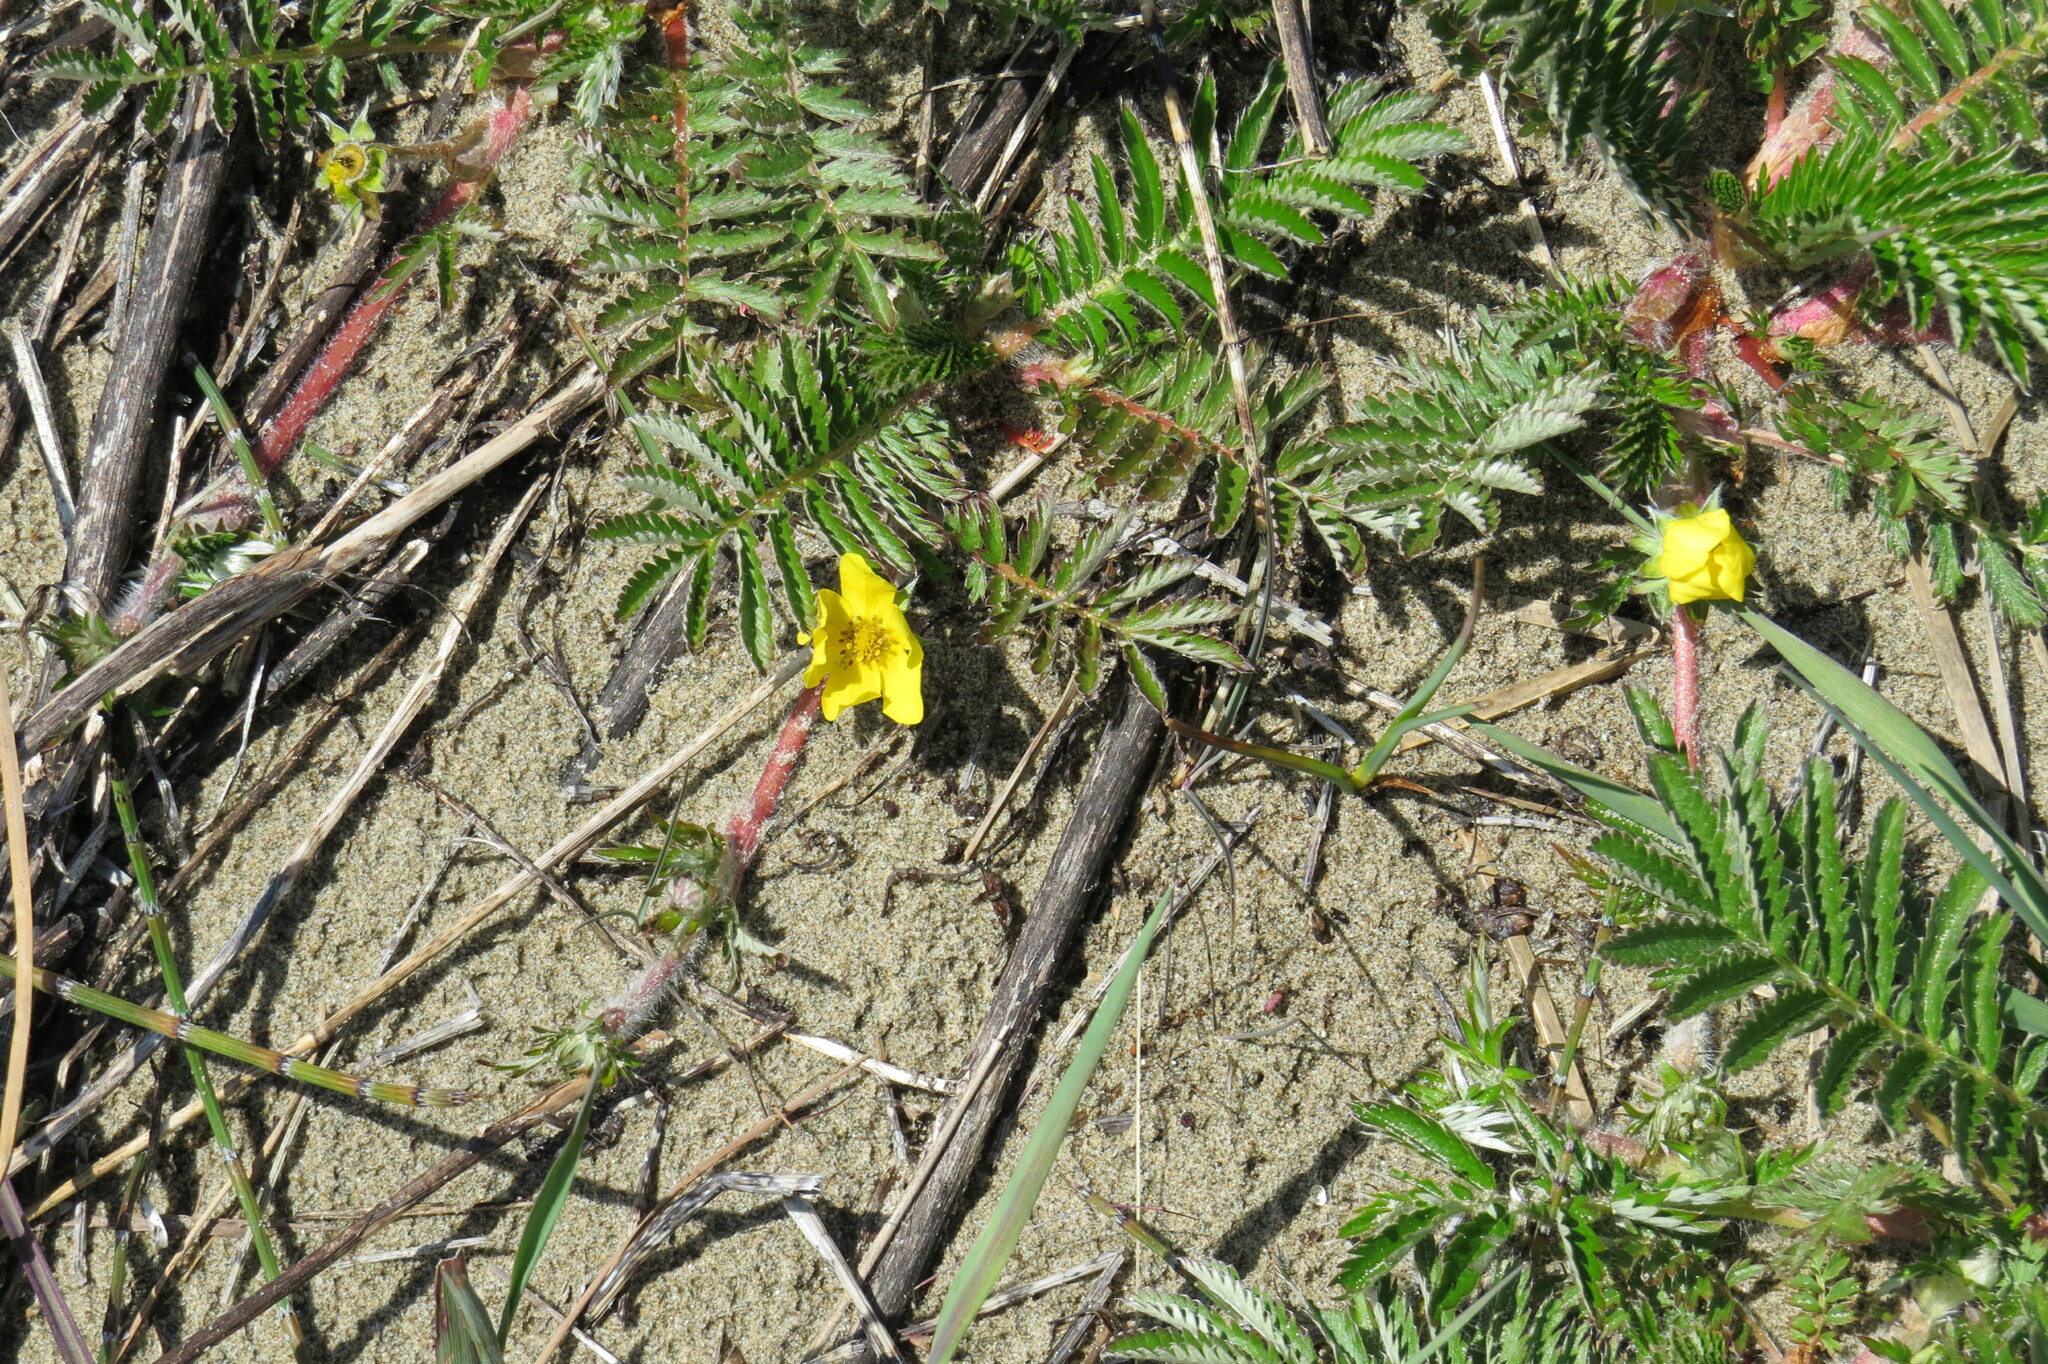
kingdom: Plantae
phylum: Tracheophyta
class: Magnoliopsida
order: Rosales
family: Rosaceae
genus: Argentina
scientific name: Argentina anserina
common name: Common silverweed
